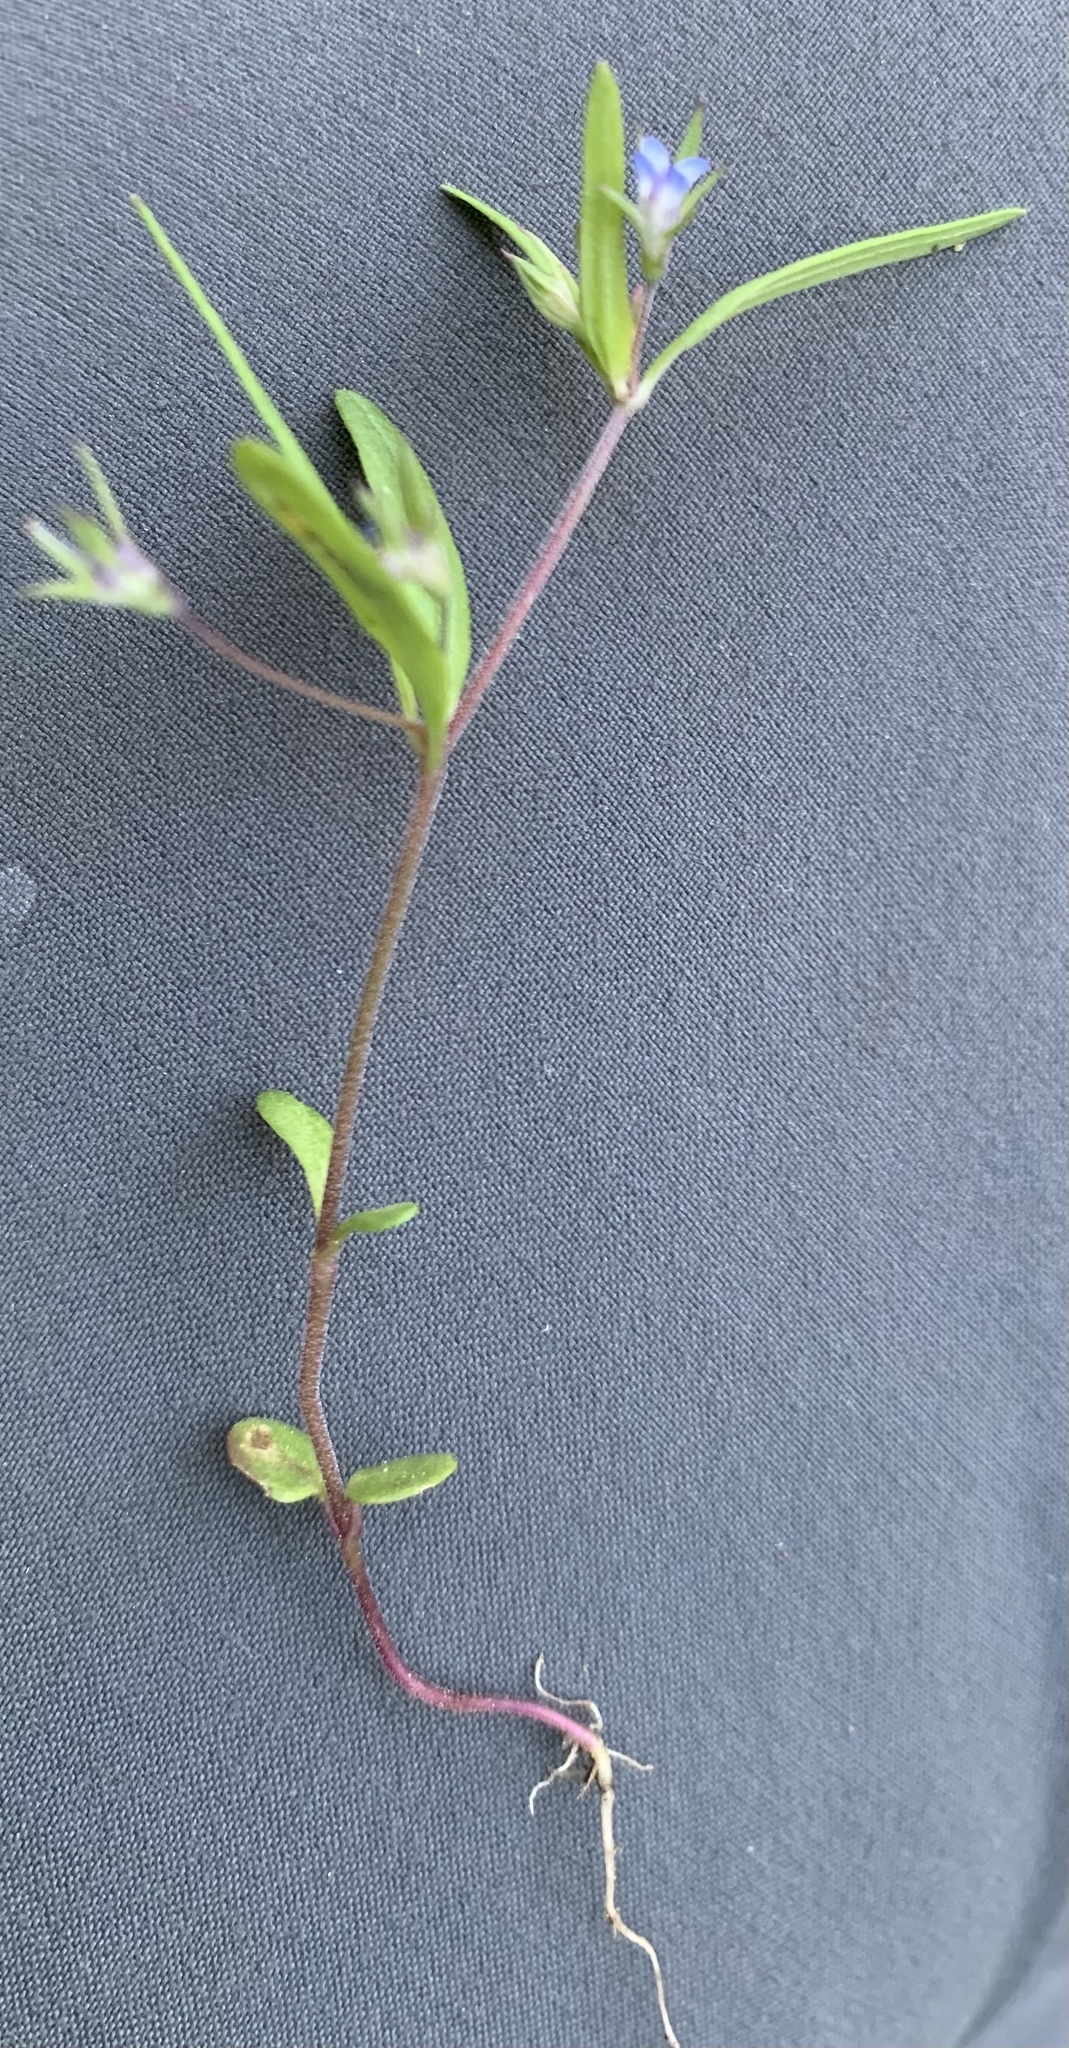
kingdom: Plantae
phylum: Tracheophyta
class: Magnoliopsida
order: Lamiales
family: Plantaginaceae
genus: Collinsia
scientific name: Collinsia parviflora
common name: Blue-lips
